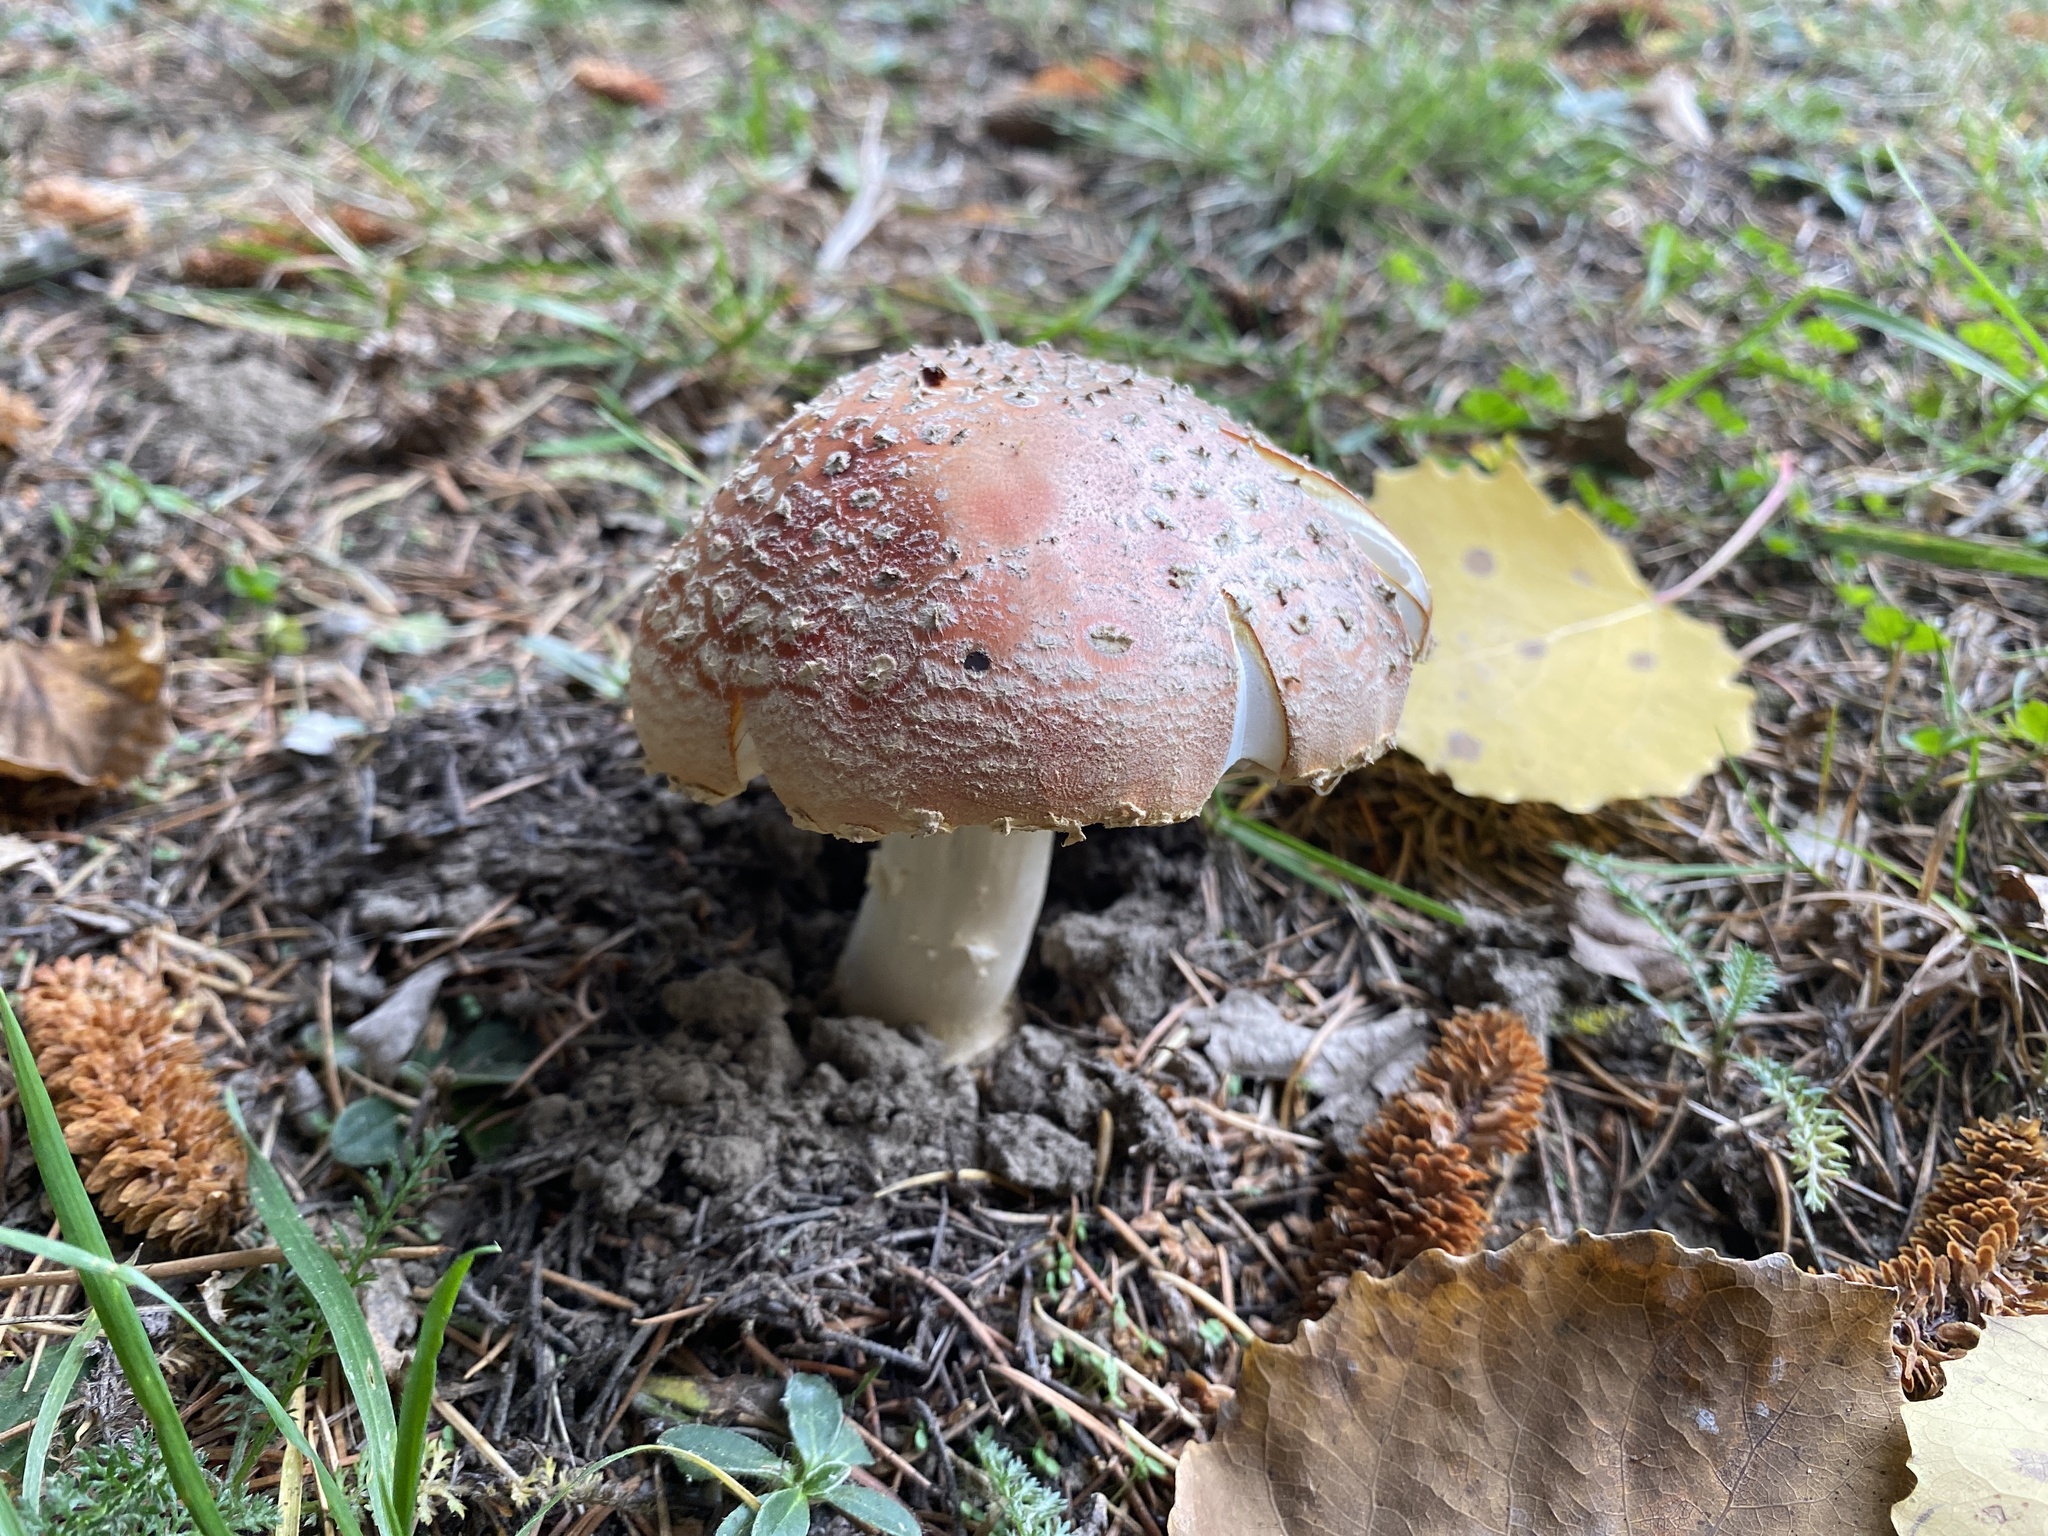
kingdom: Fungi
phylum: Basidiomycota
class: Agaricomycetes
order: Agaricales
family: Amanitaceae
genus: Amanita
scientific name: Amanita muscaria
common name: Fly agaric
